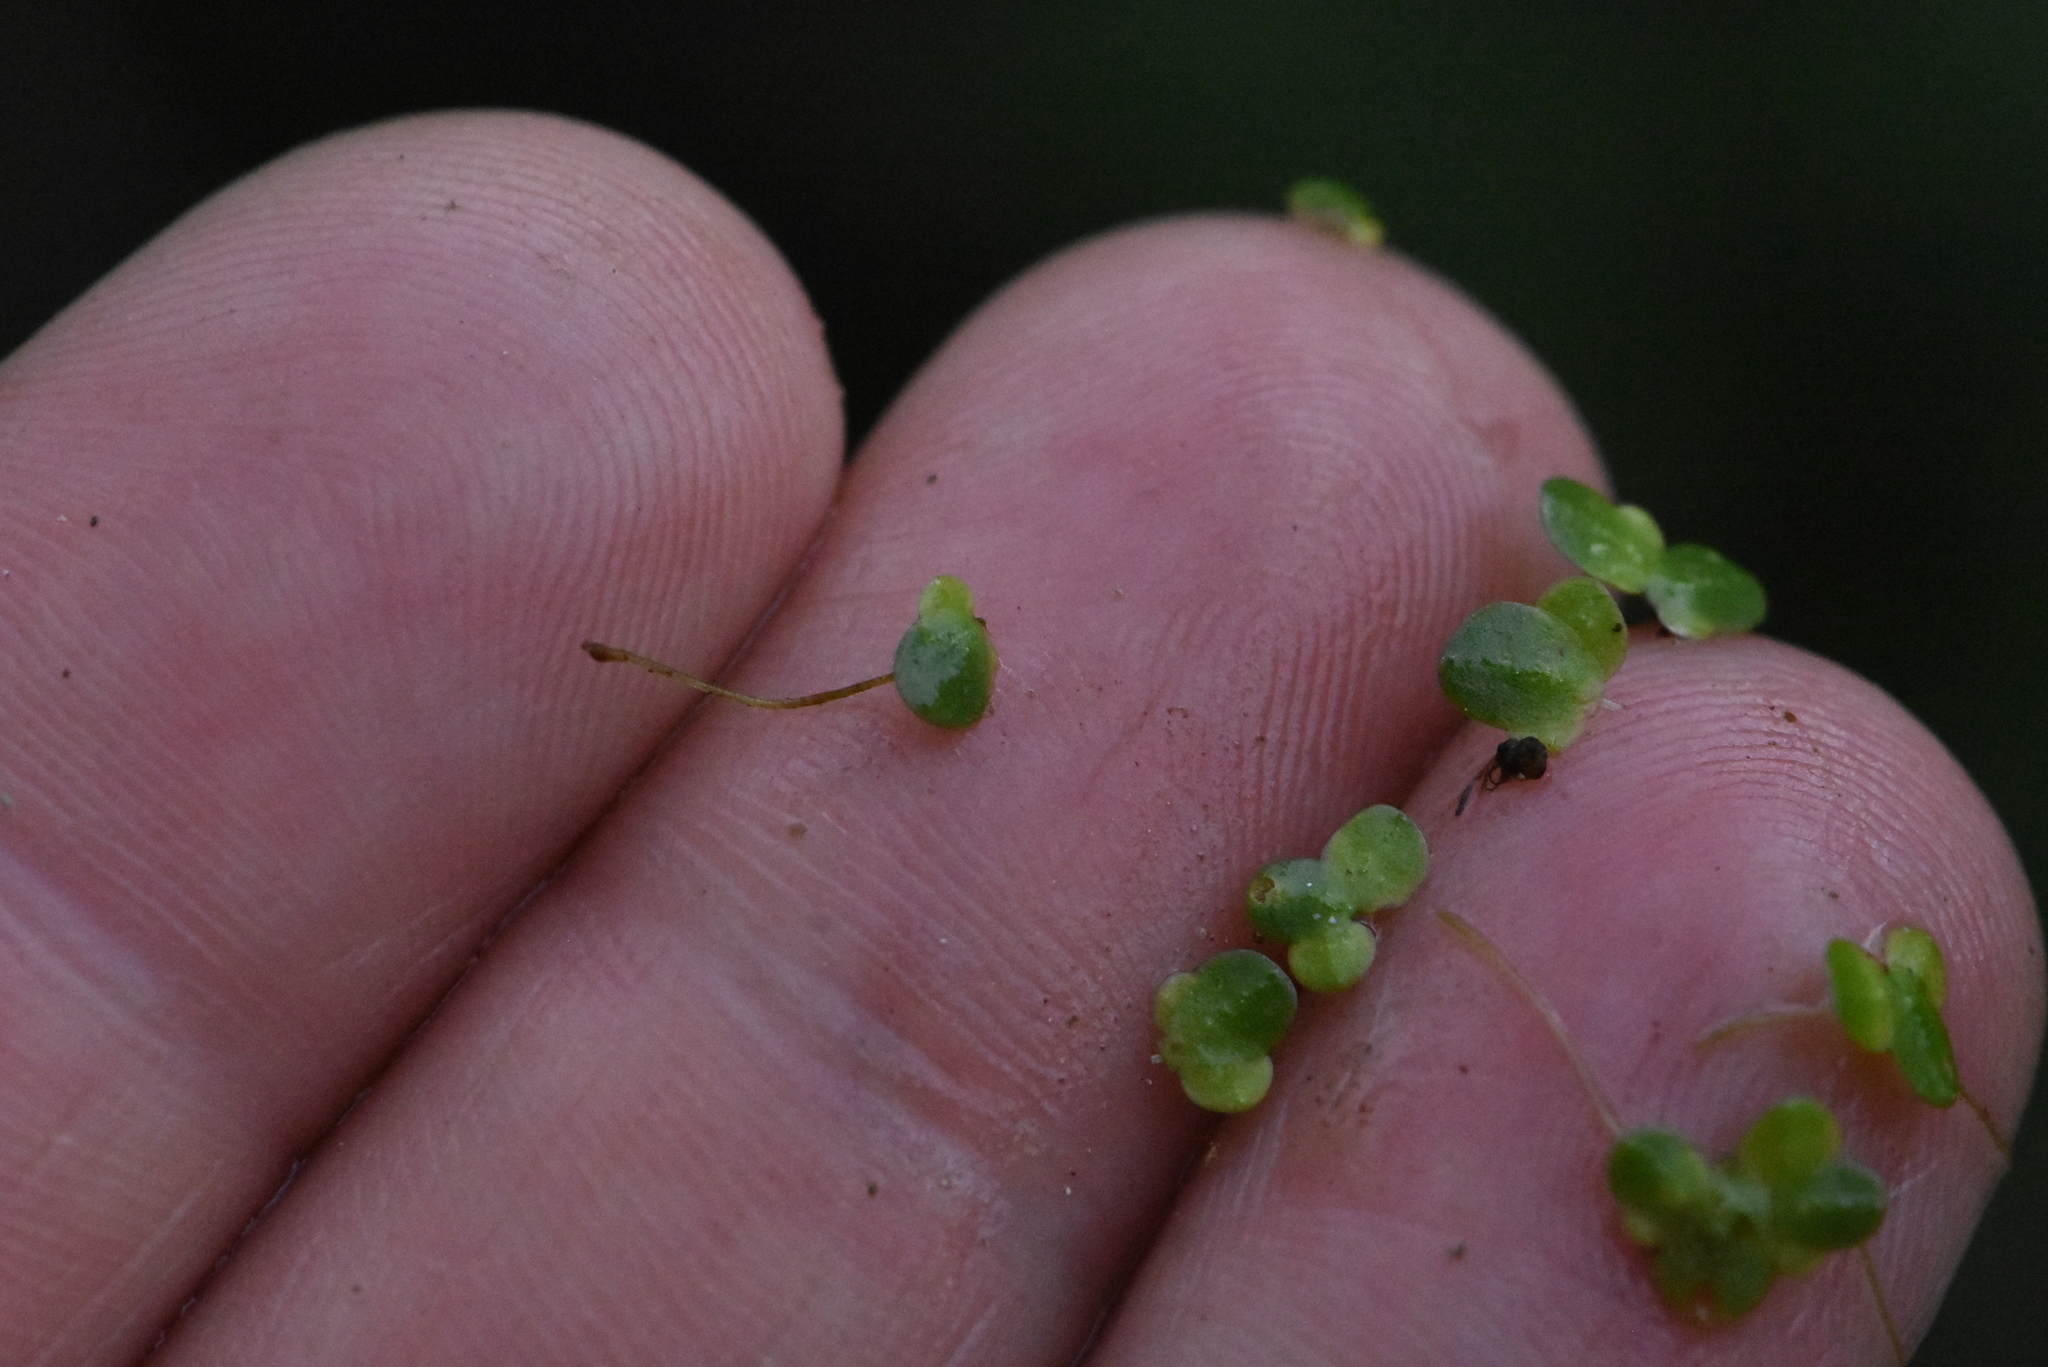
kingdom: Plantae
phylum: Tracheophyta
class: Liliopsida
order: Alismatales
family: Araceae
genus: Lemna
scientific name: Lemna minor
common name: Common duckweed
